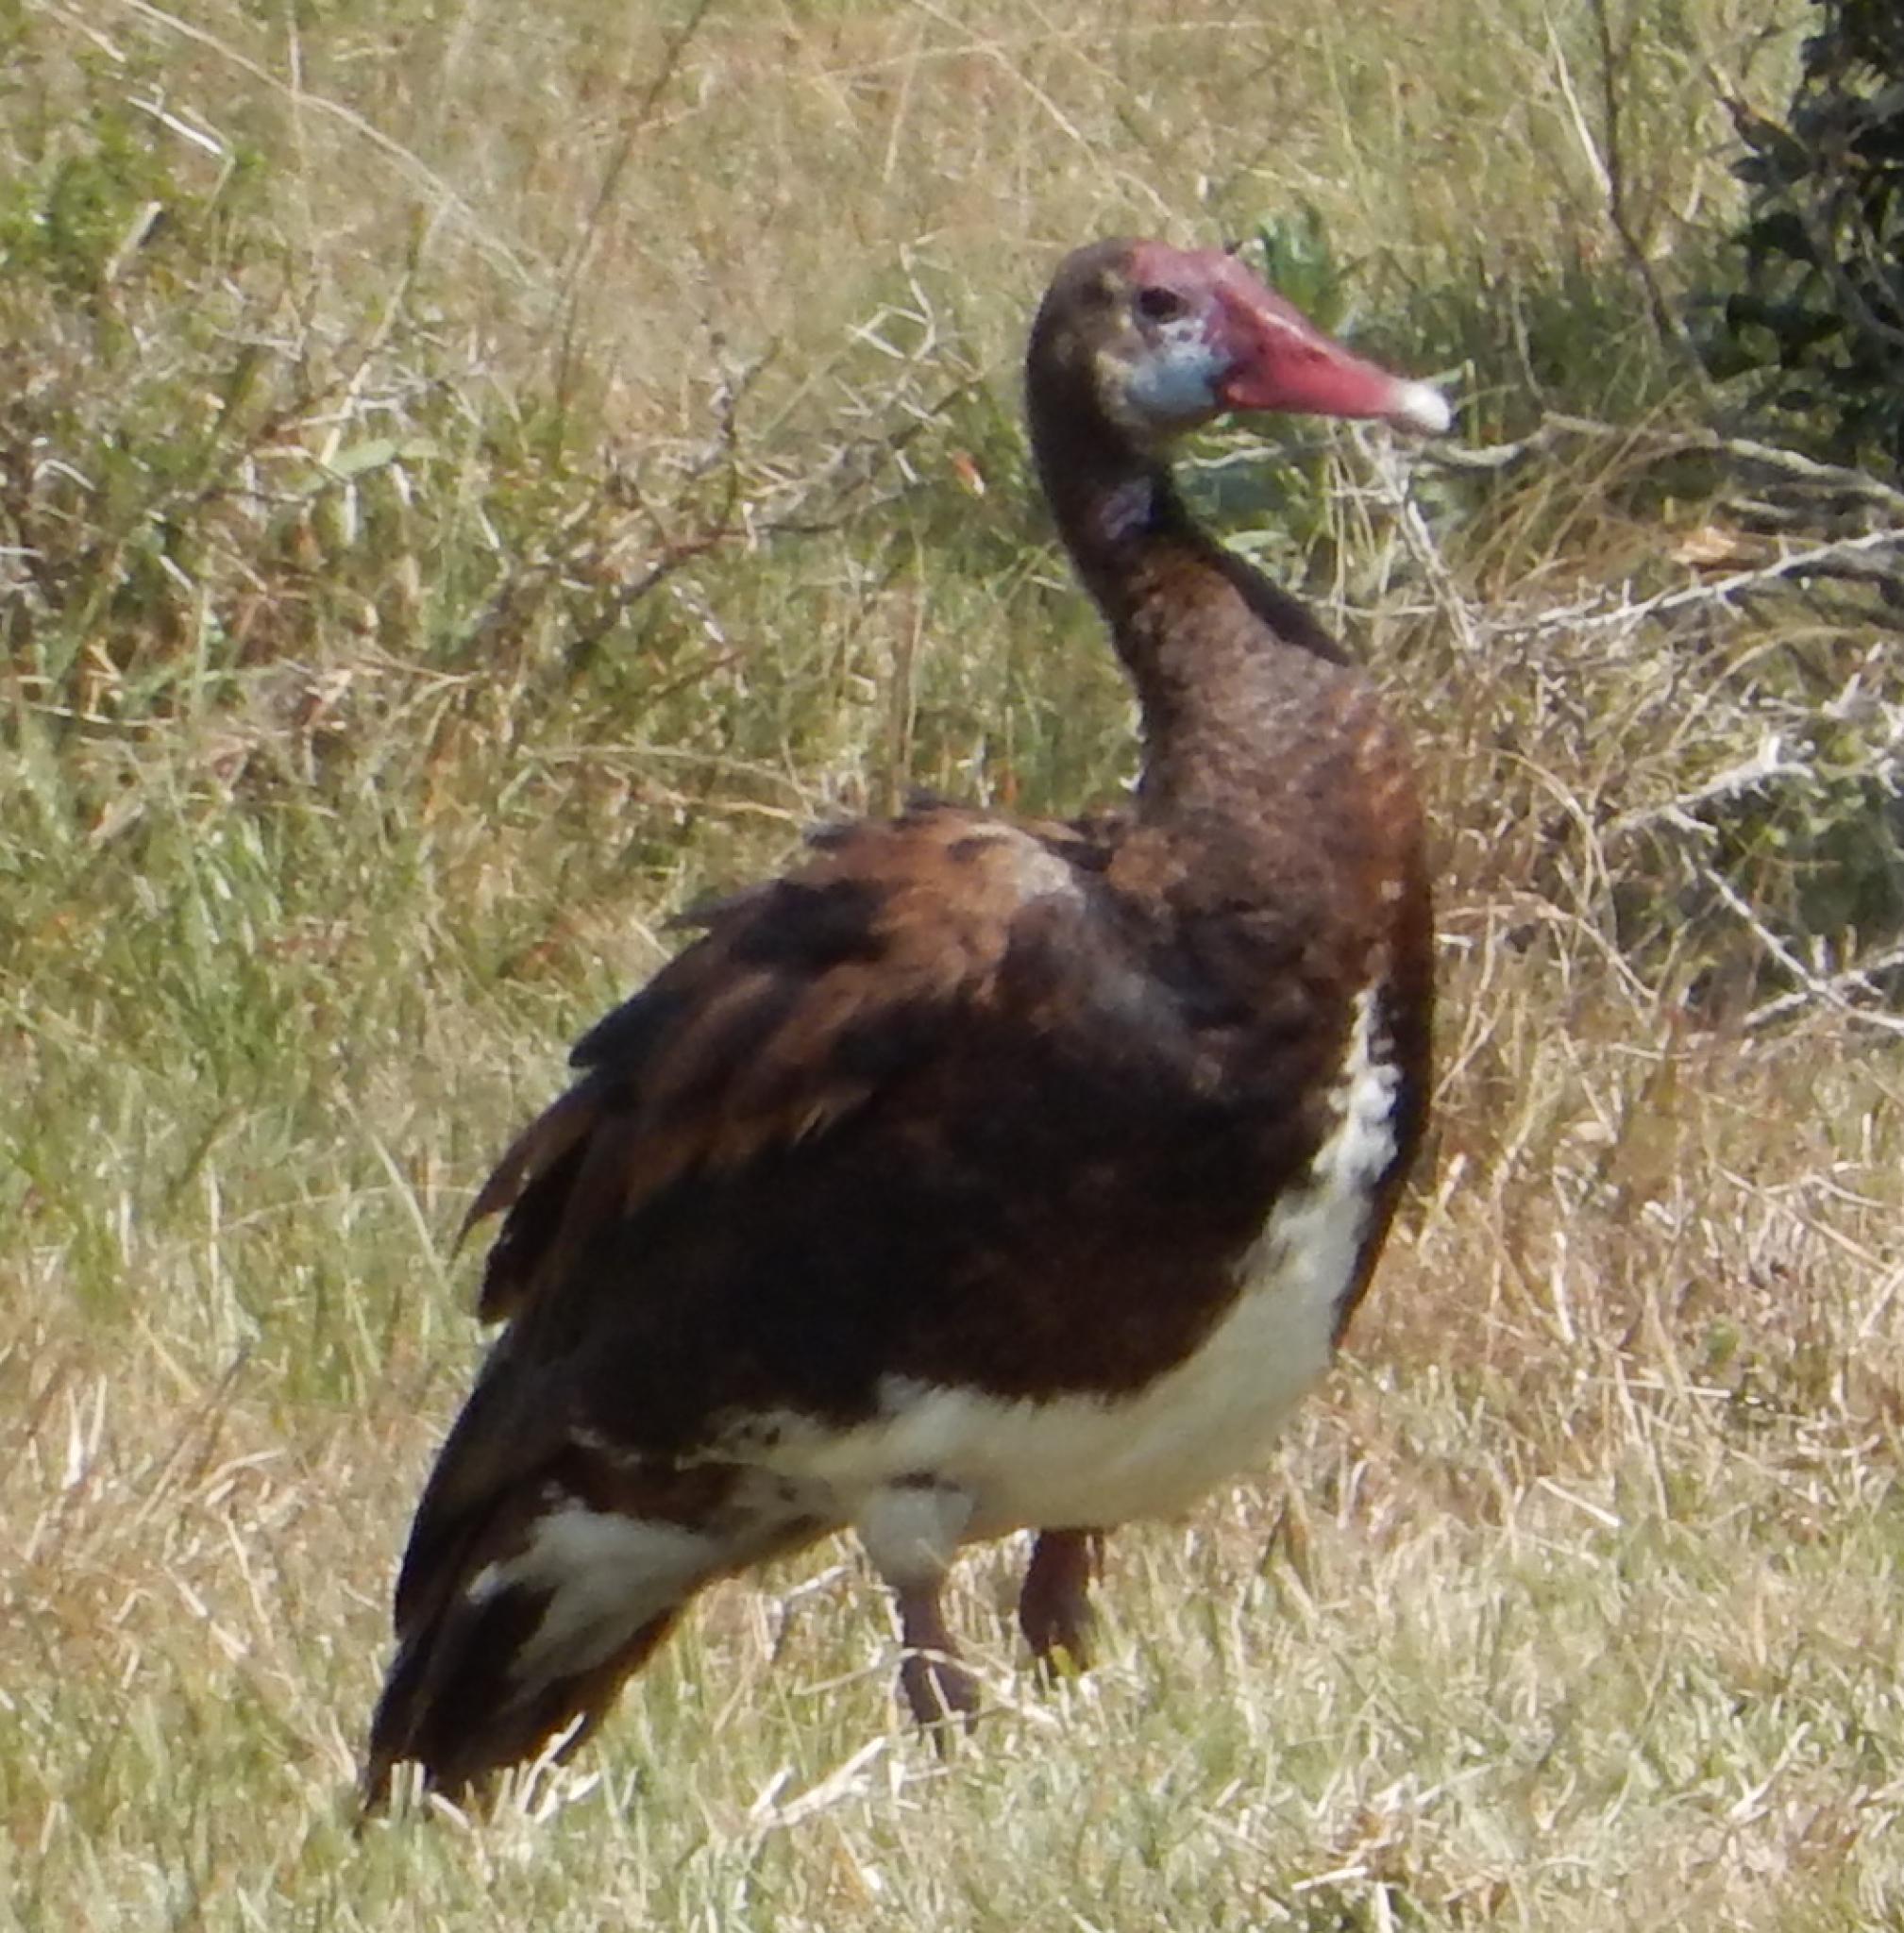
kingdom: Animalia
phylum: Chordata
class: Aves
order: Anseriformes
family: Anatidae
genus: Plectropterus
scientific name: Plectropterus gambensis
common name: Spur-winged goose
